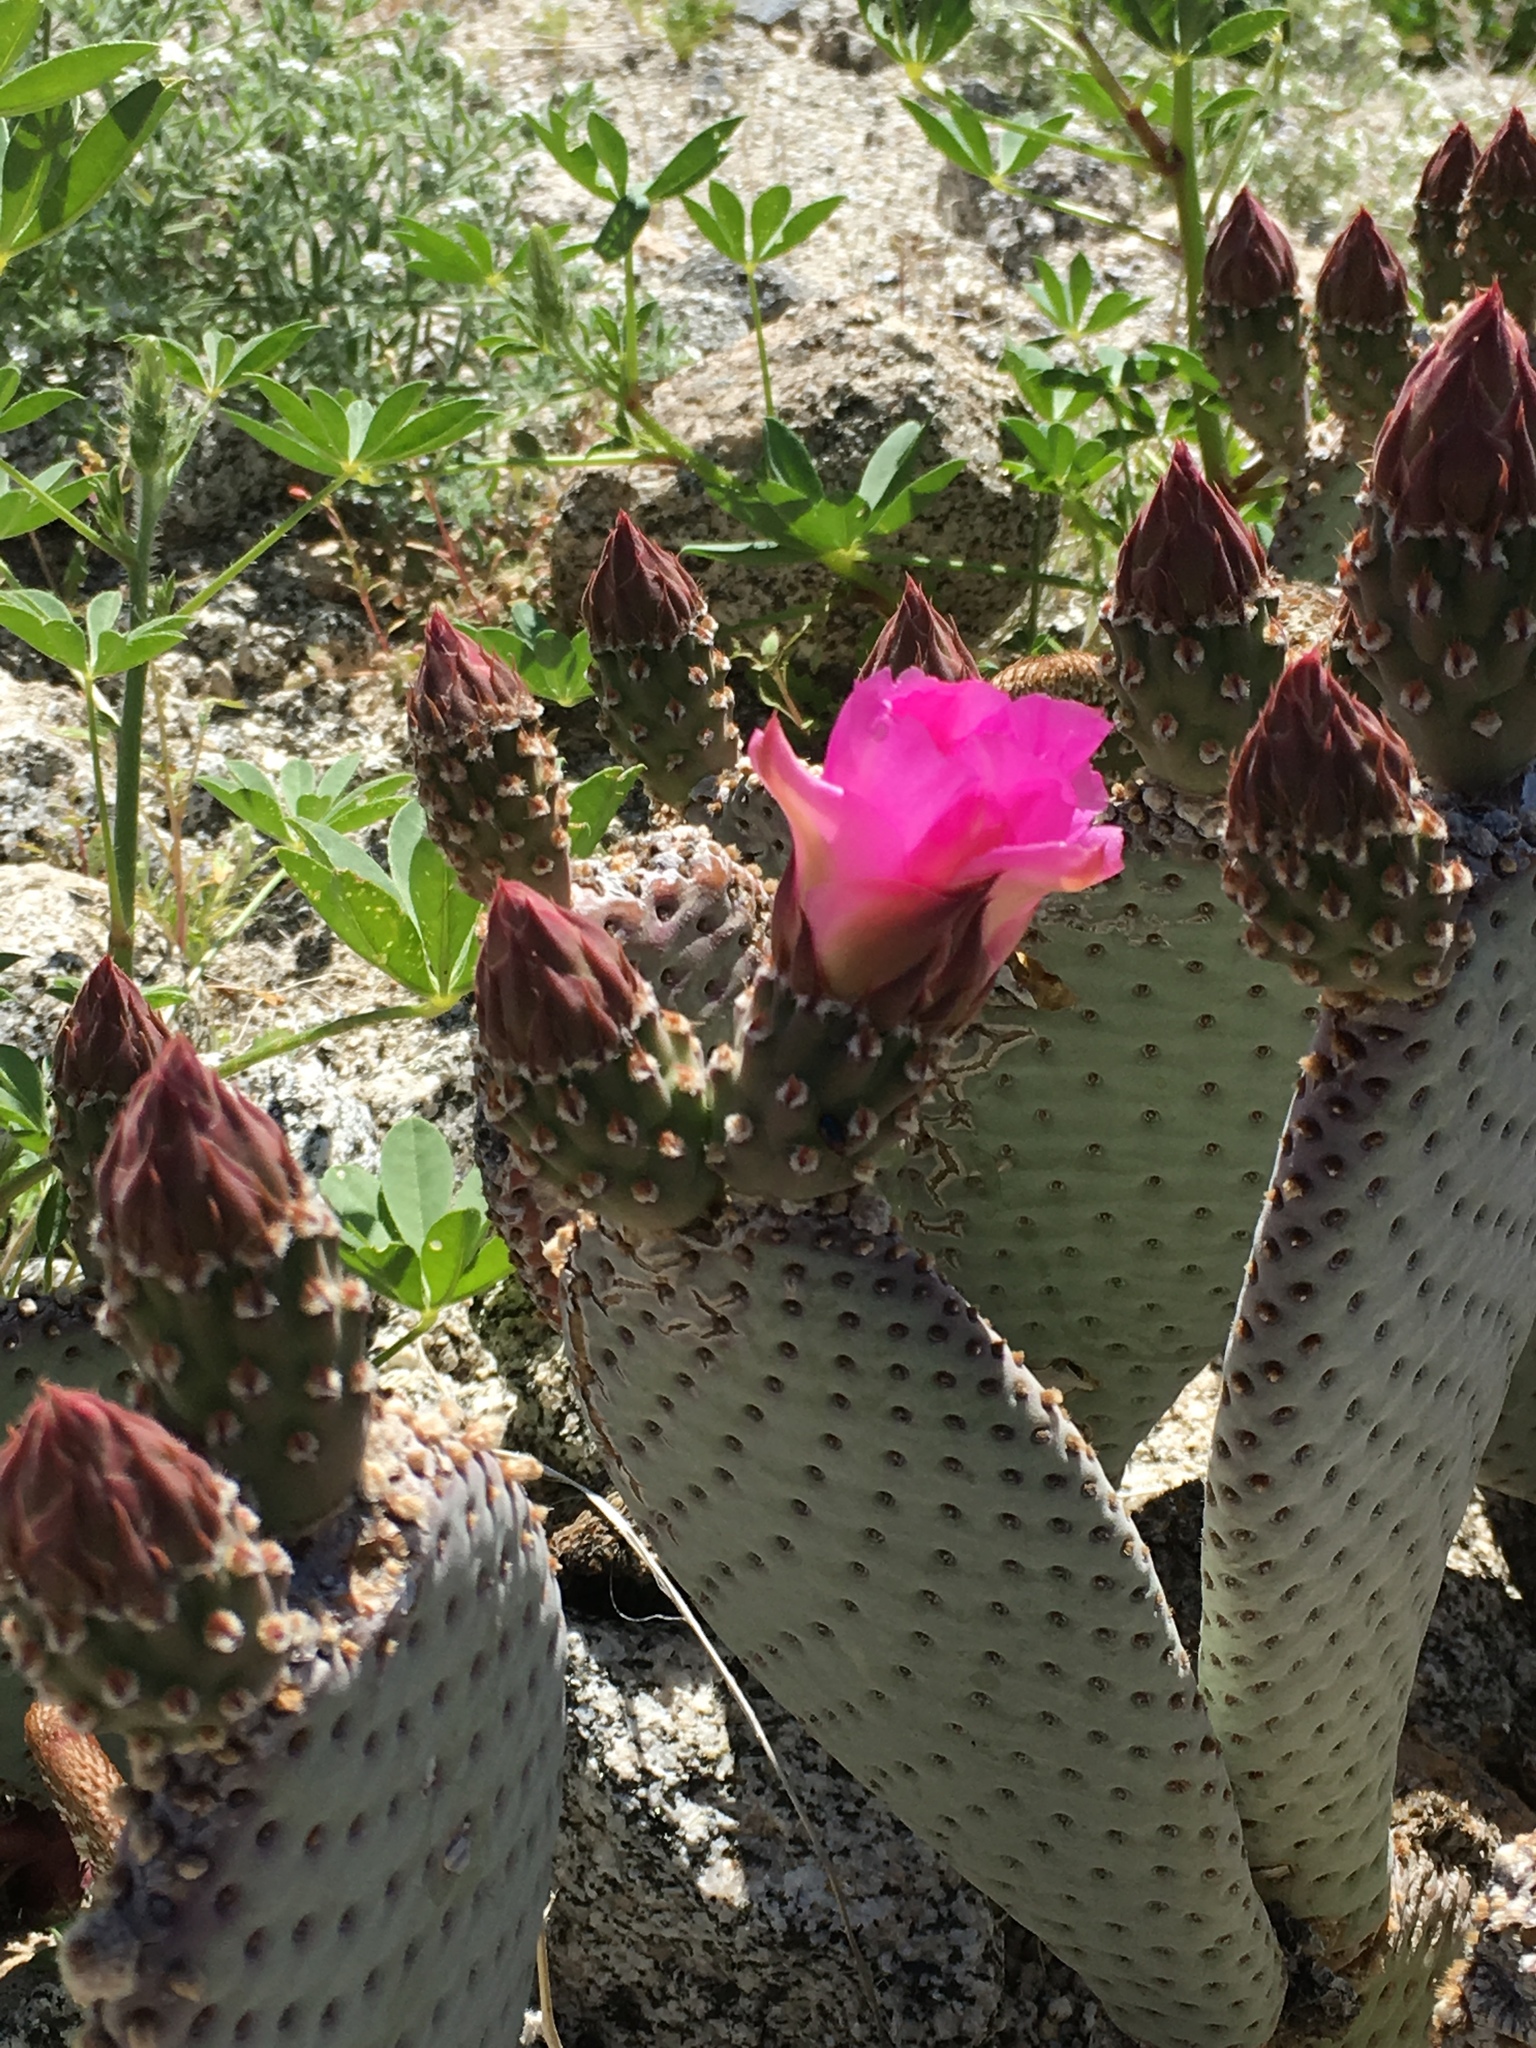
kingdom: Plantae
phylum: Tracheophyta
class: Magnoliopsida
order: Caryophyllales
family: Cactaceae
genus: Opuntia
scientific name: Opuntia basilaris
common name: Beavertail prickly-pear
